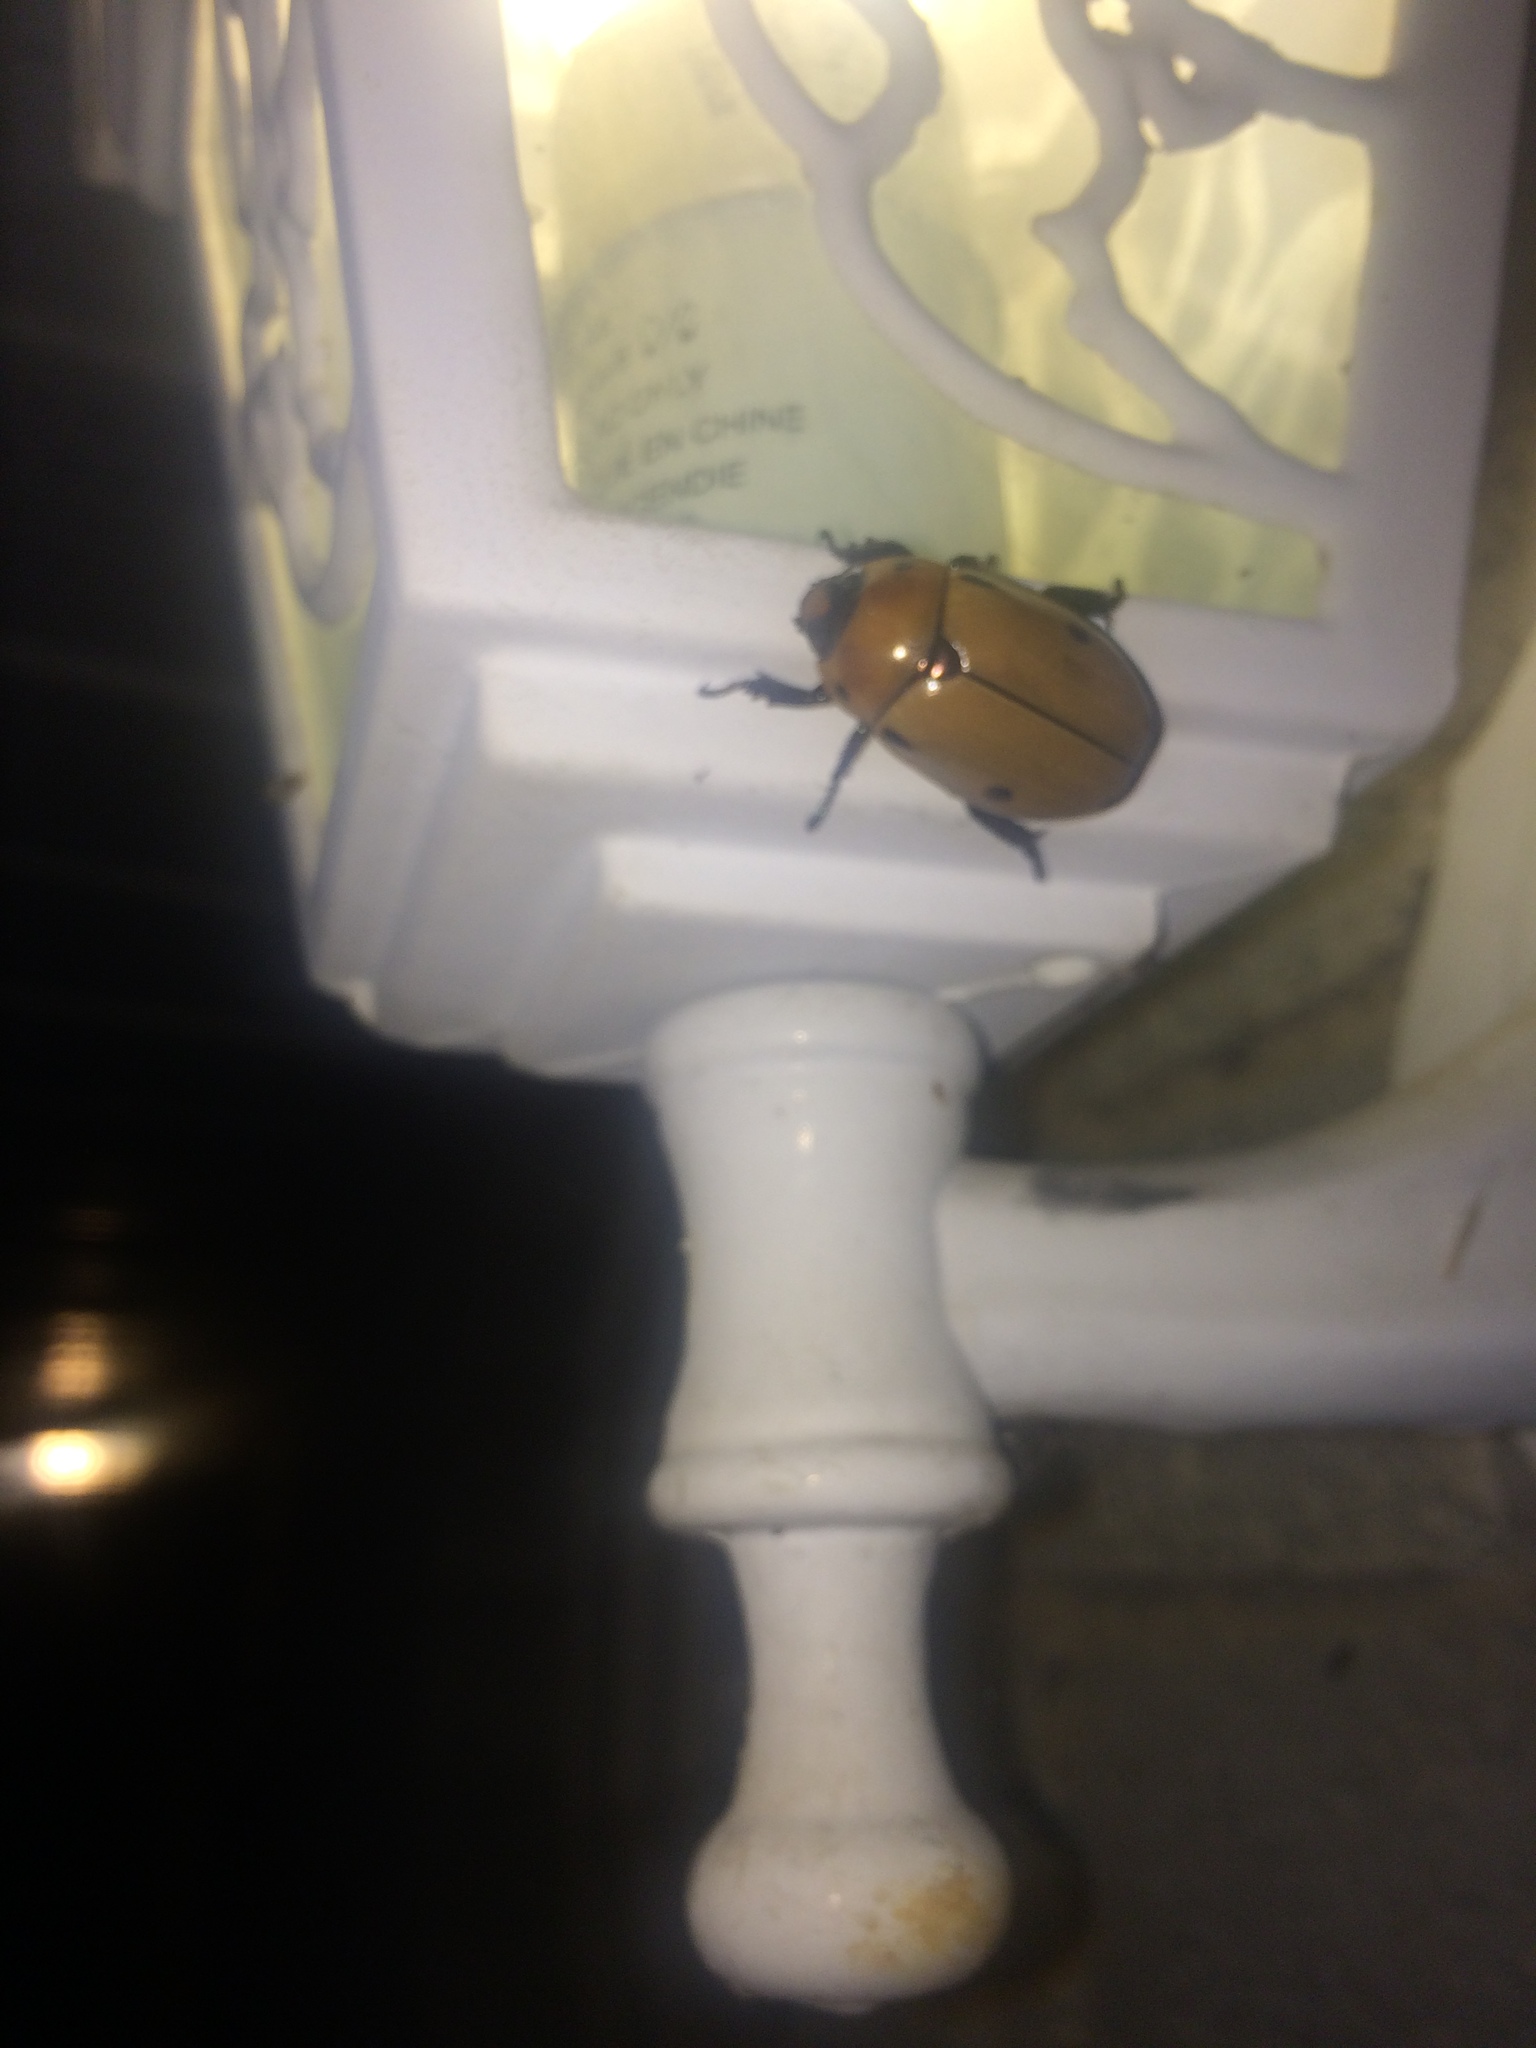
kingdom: Animalia
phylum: Arthropoda
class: Insecta
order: Coleoptera
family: Scarabaeidae
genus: Pelidnota
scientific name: Pelidnota punctata
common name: Grapevine beetle
